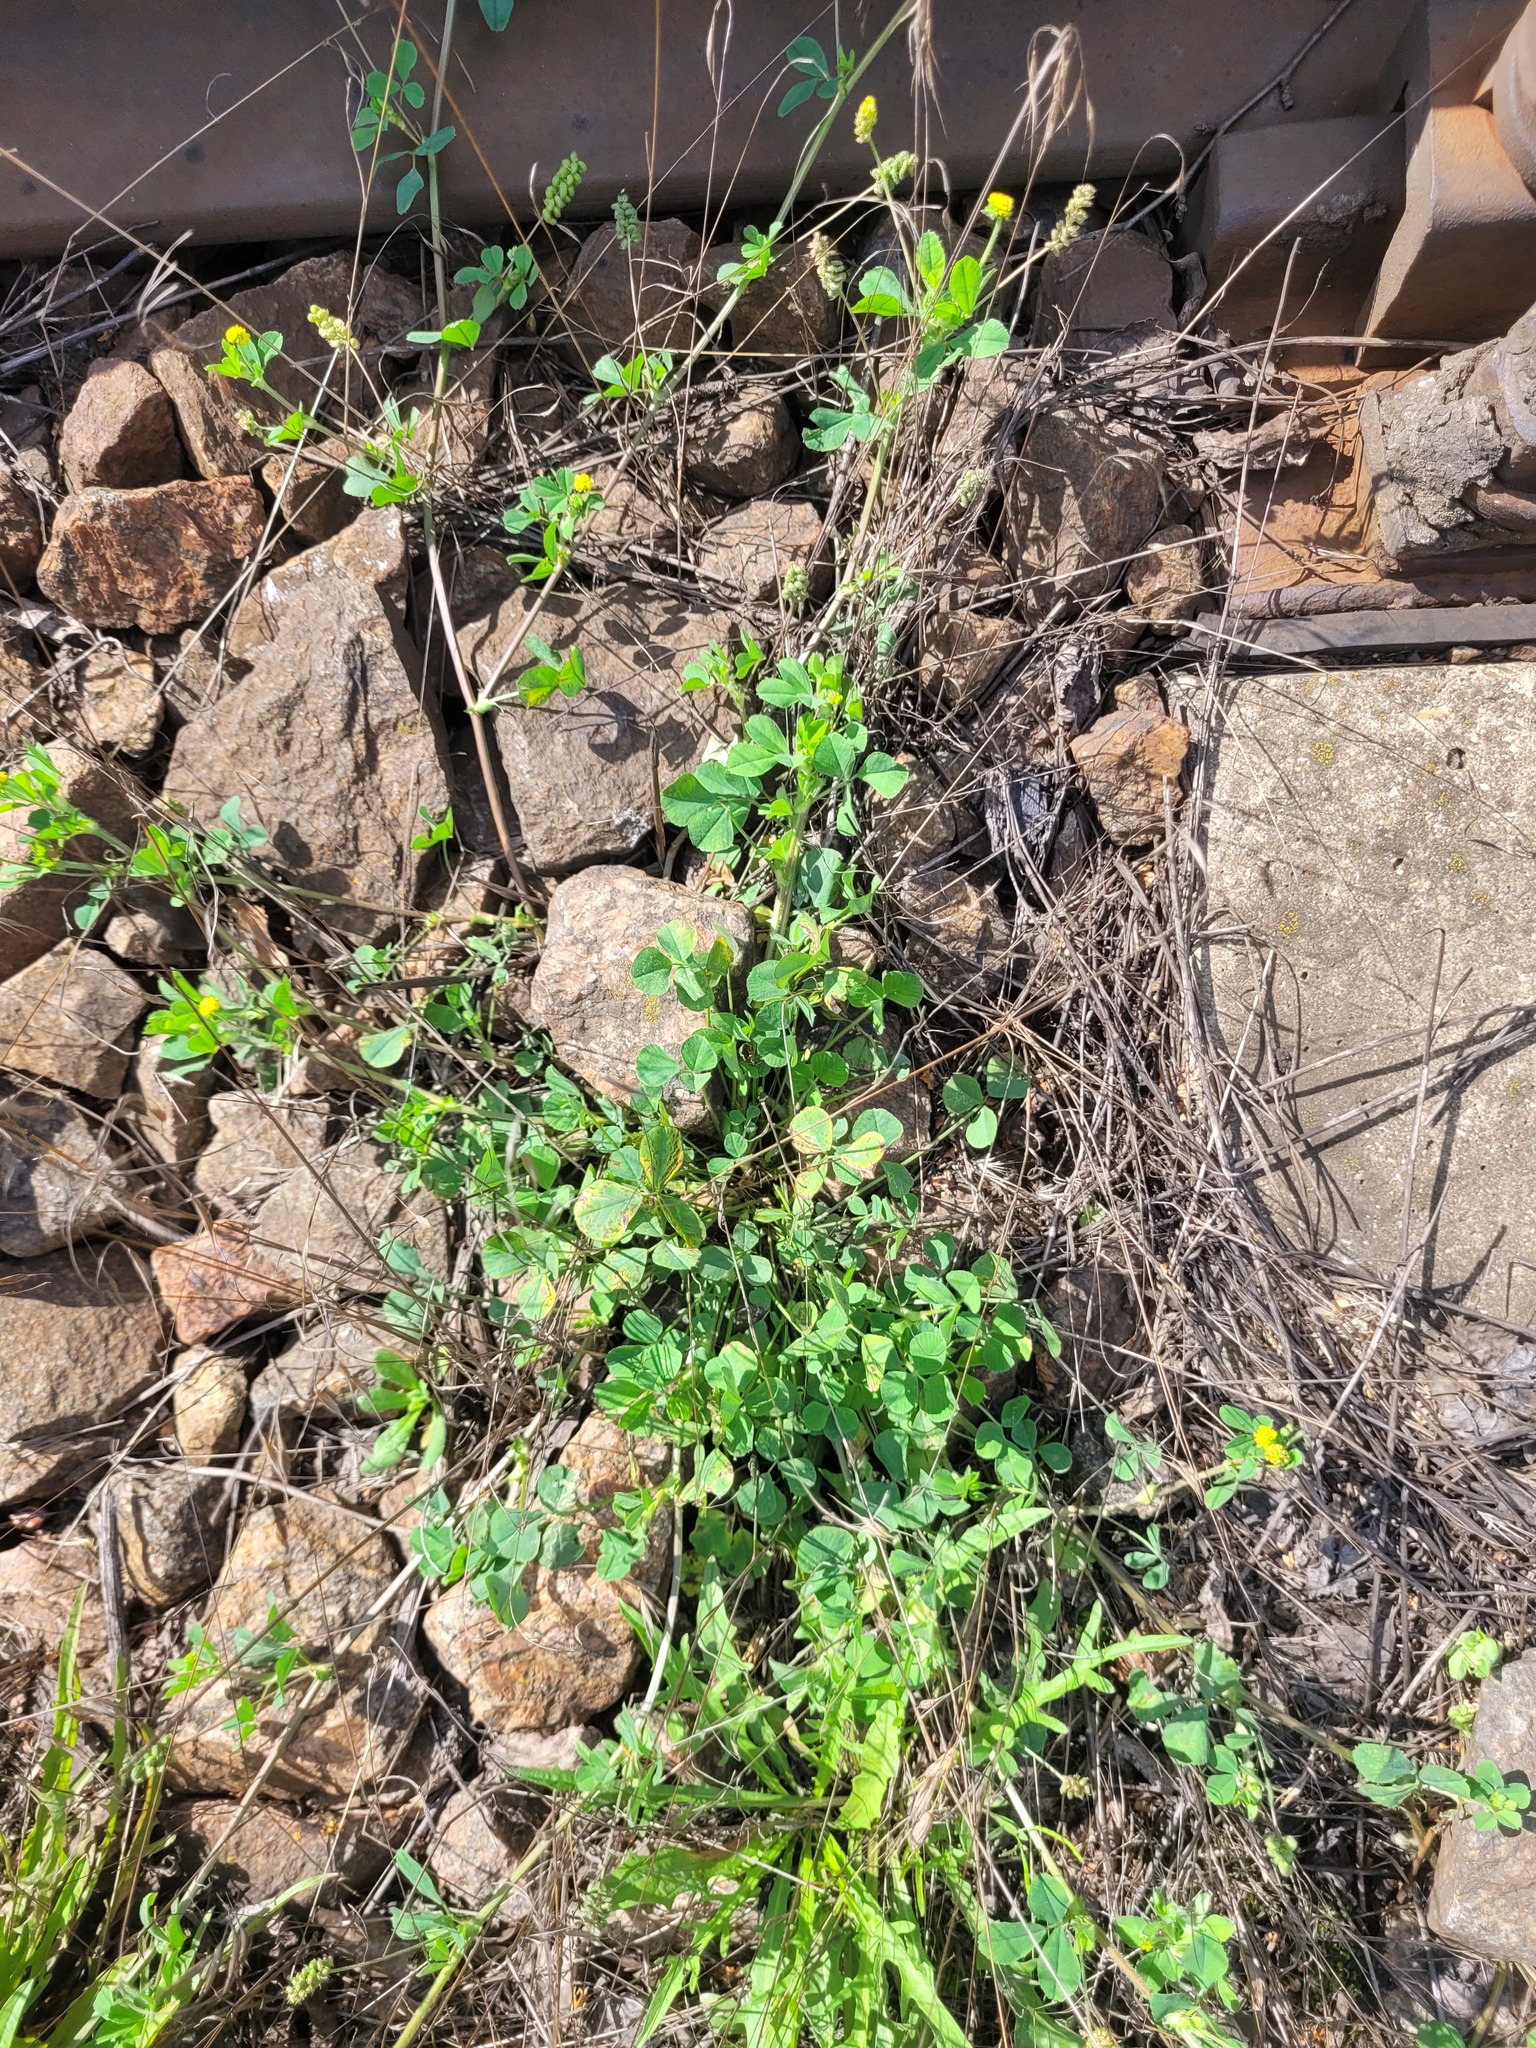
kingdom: Plantae
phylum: Tracheophyta
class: Magnoliopsida
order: Fabales
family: Fabaceae
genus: Medicago
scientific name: Medicago lupulina
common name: Black medick
